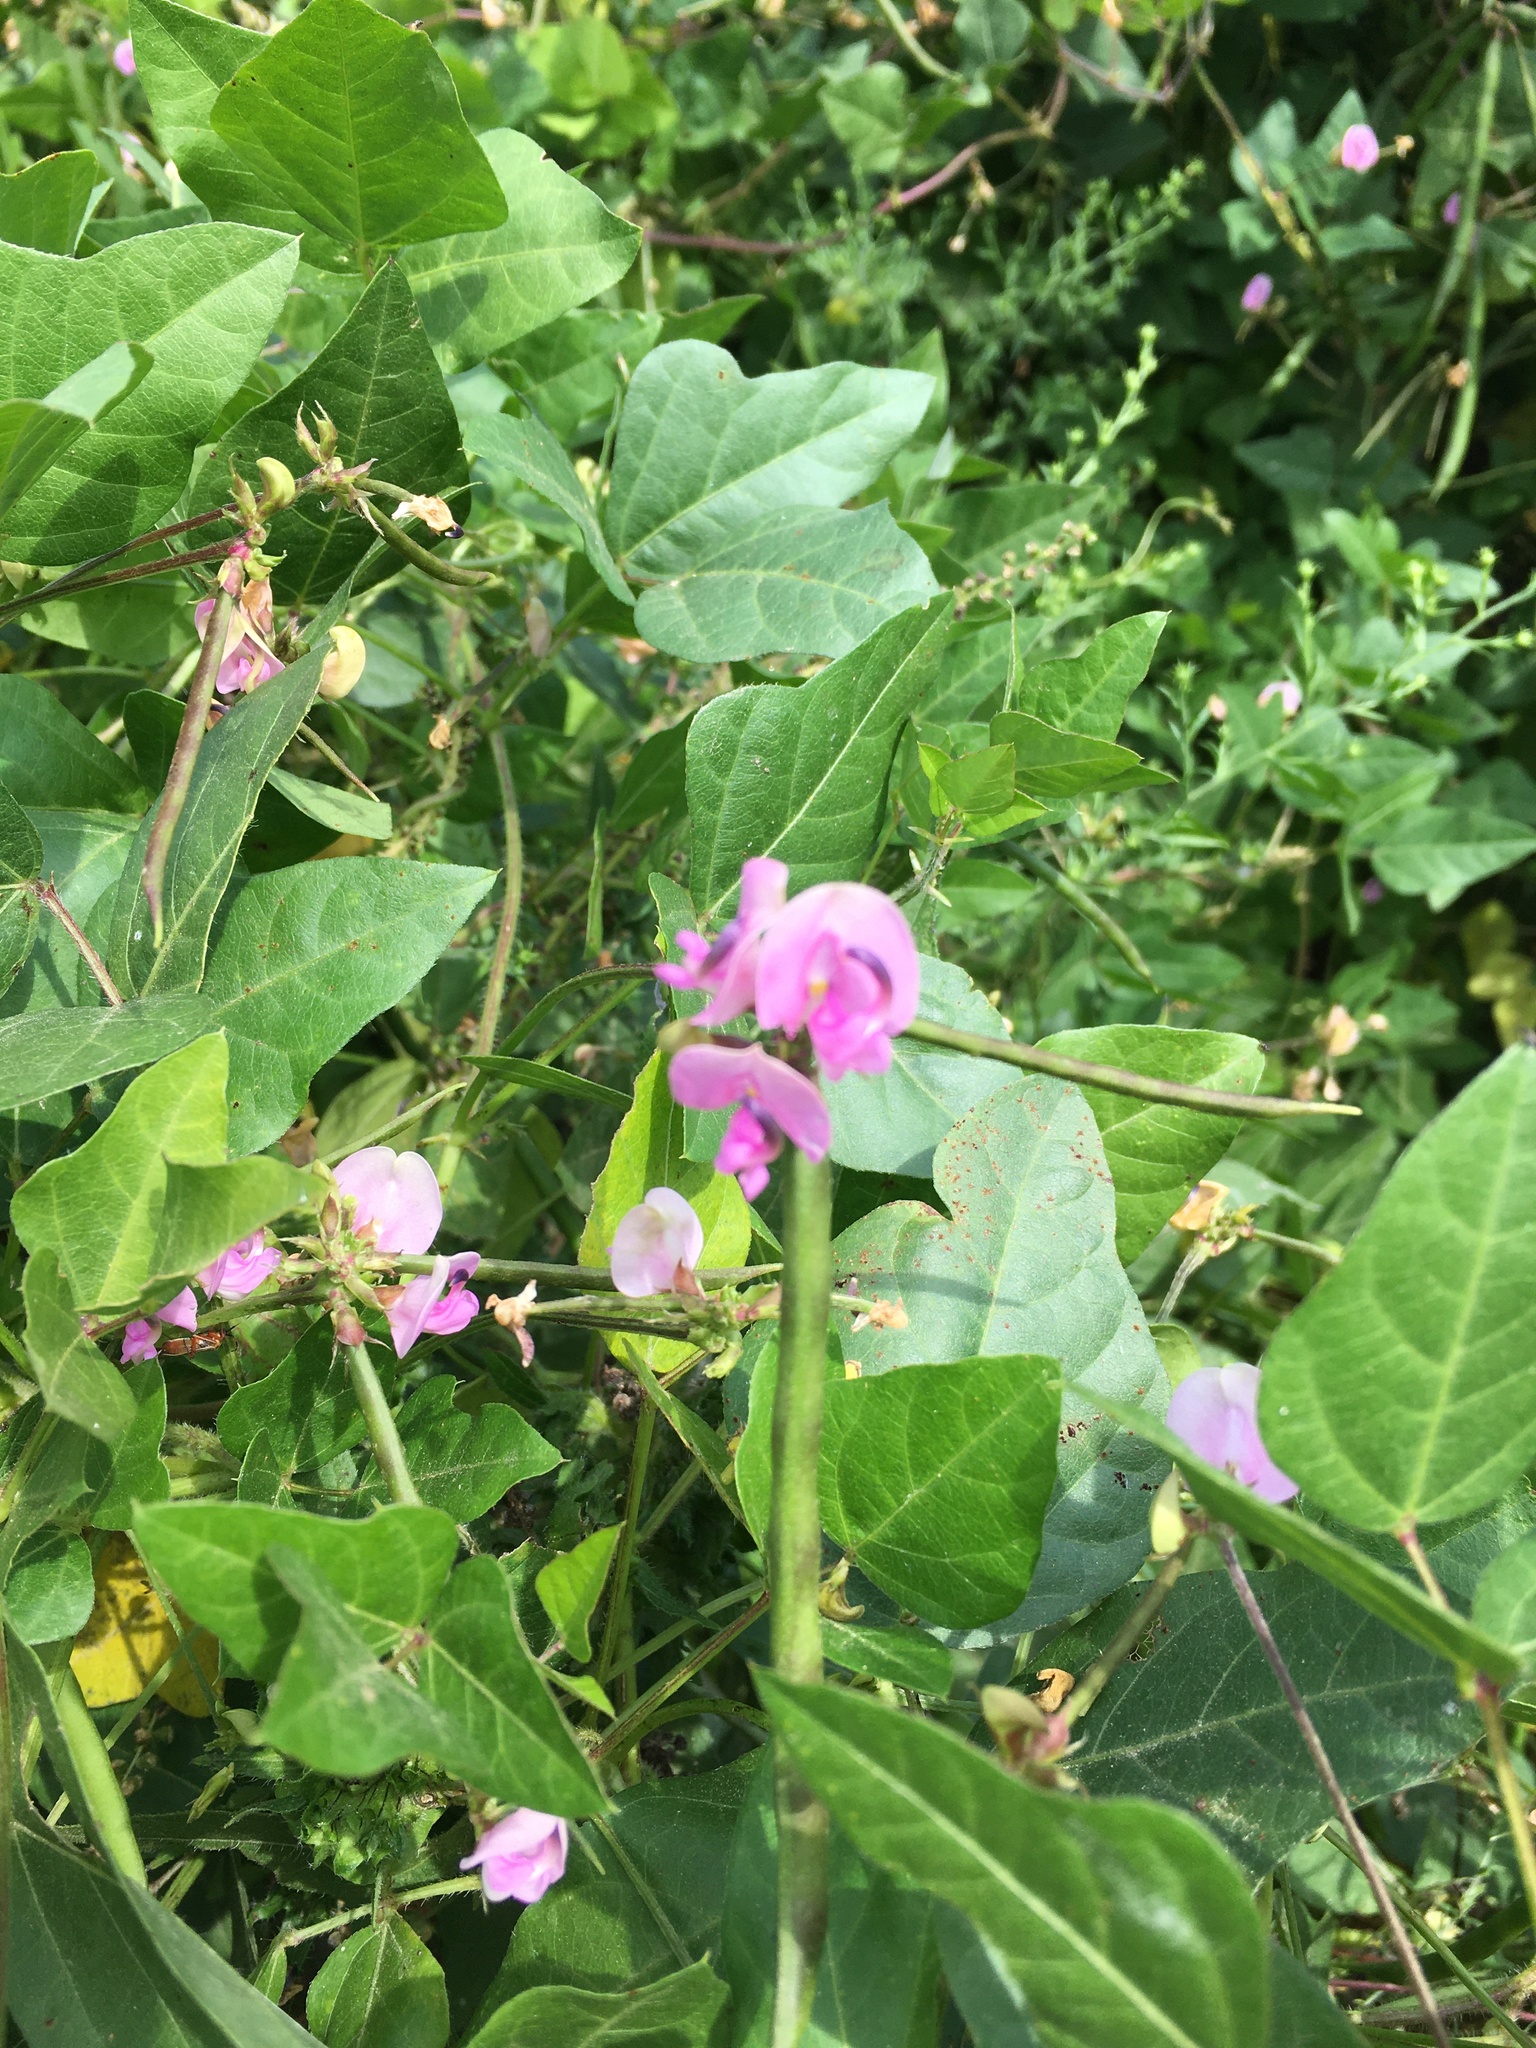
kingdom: Plantae
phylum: Tracheophyta
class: Magnoliopsida
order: Fabales
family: Fabaceae
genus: Strophostyles
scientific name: Strophostyles helvola
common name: Trailing wild bean
